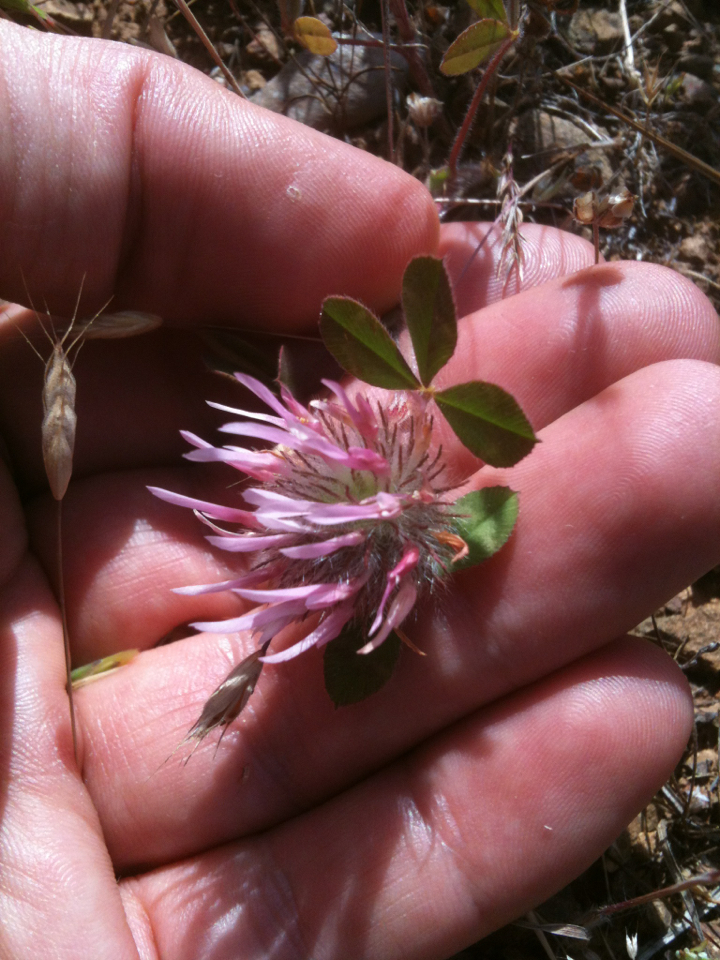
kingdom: Plantae
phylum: Tracheophyta
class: Magnoliopsida
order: Fabales
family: Fabaceae
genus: Trifolium
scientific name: Trifolium hirtum
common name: Rose clover
